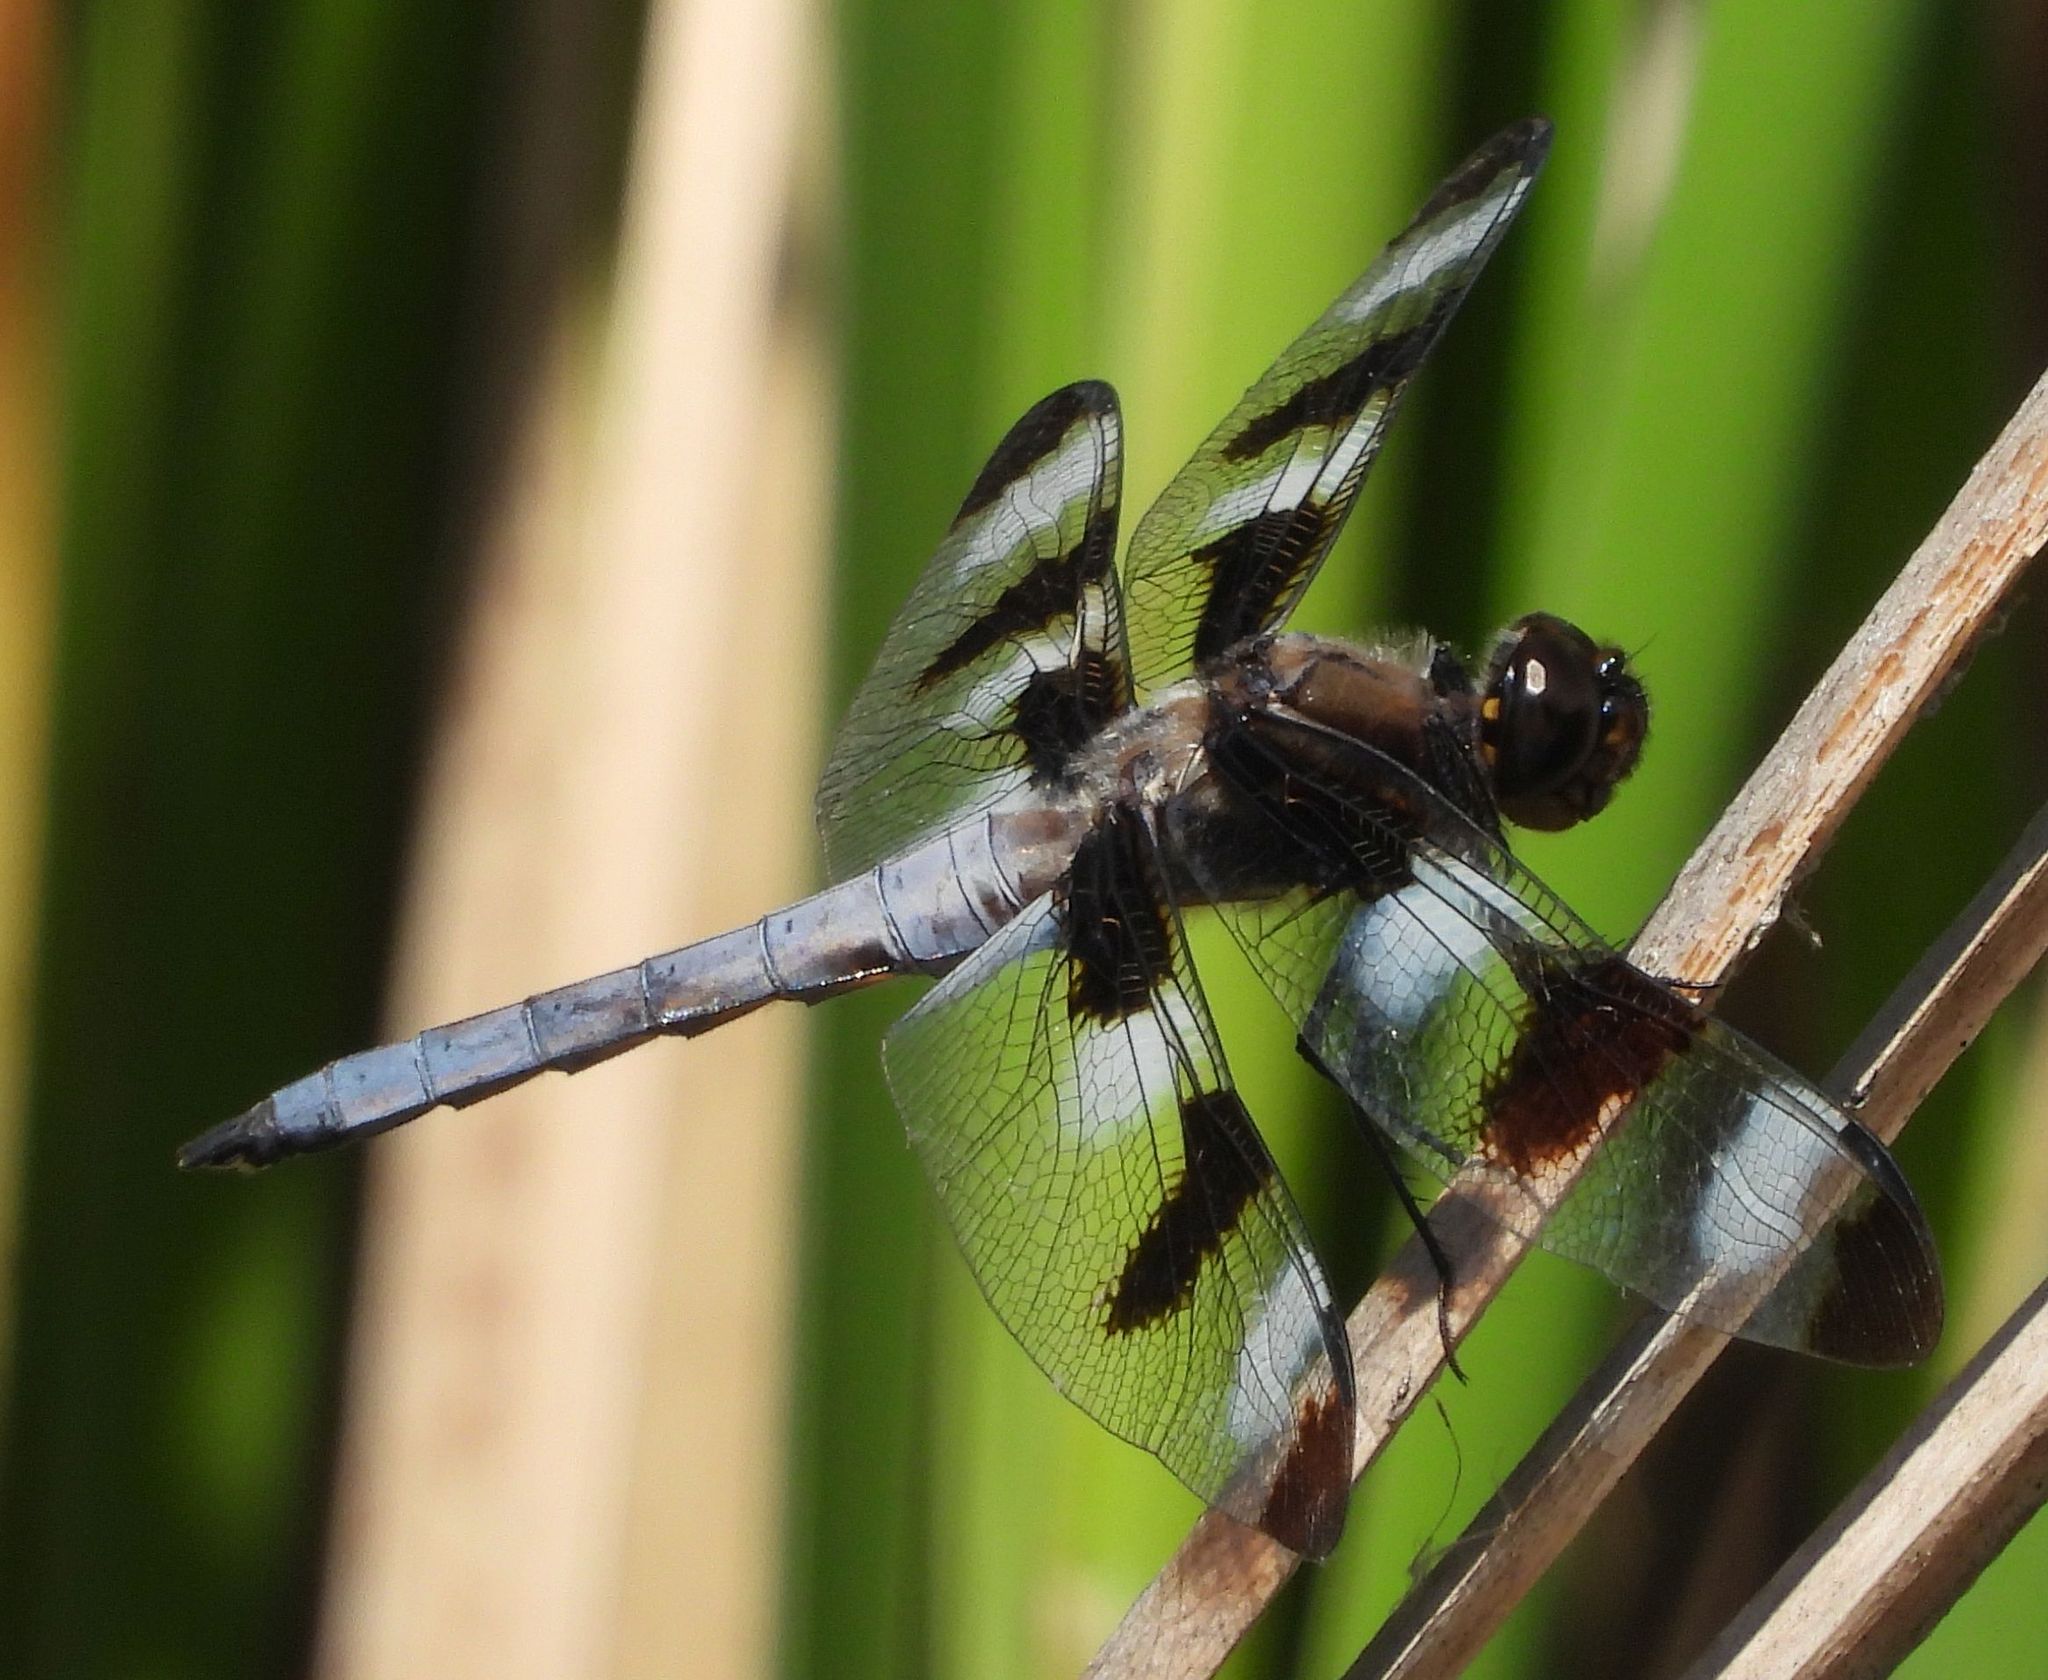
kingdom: Animalia
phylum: Arthropoda
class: Insecta
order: Odonata
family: Libellulidae
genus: Libellula
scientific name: Libellula pulchella
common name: Twelve-spotted skimmer
